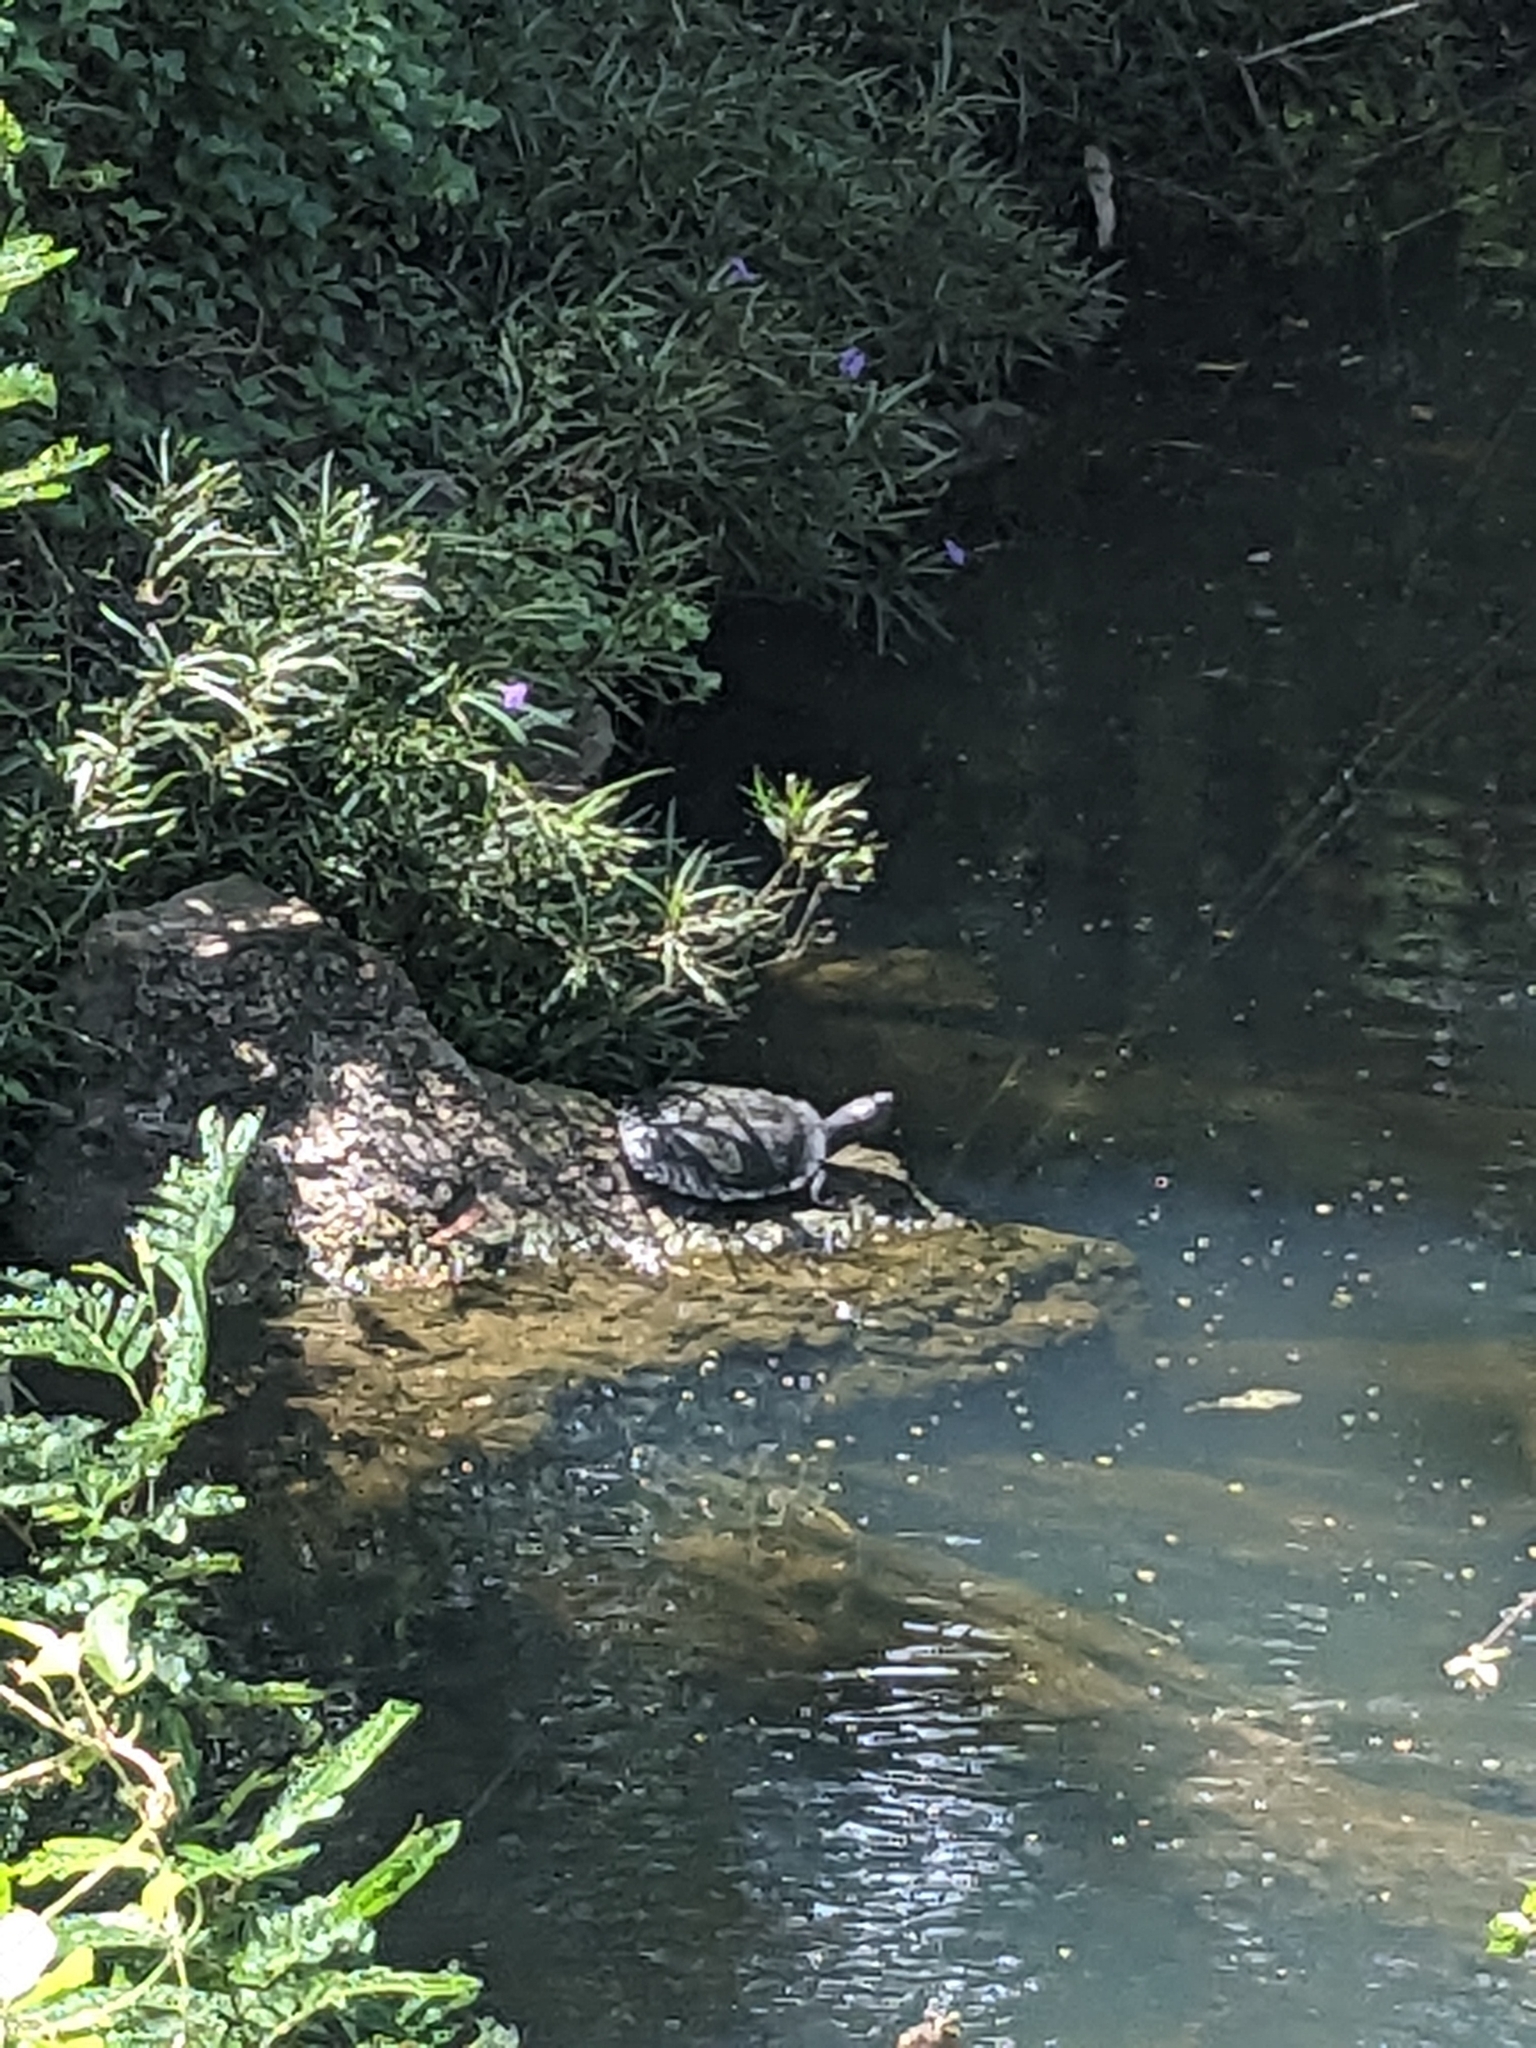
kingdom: Animalia
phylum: Chordata
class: Testudines
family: Chelidae
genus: Myuchelys
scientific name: Myuchelys latisternum
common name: Serrated snapping turtle
